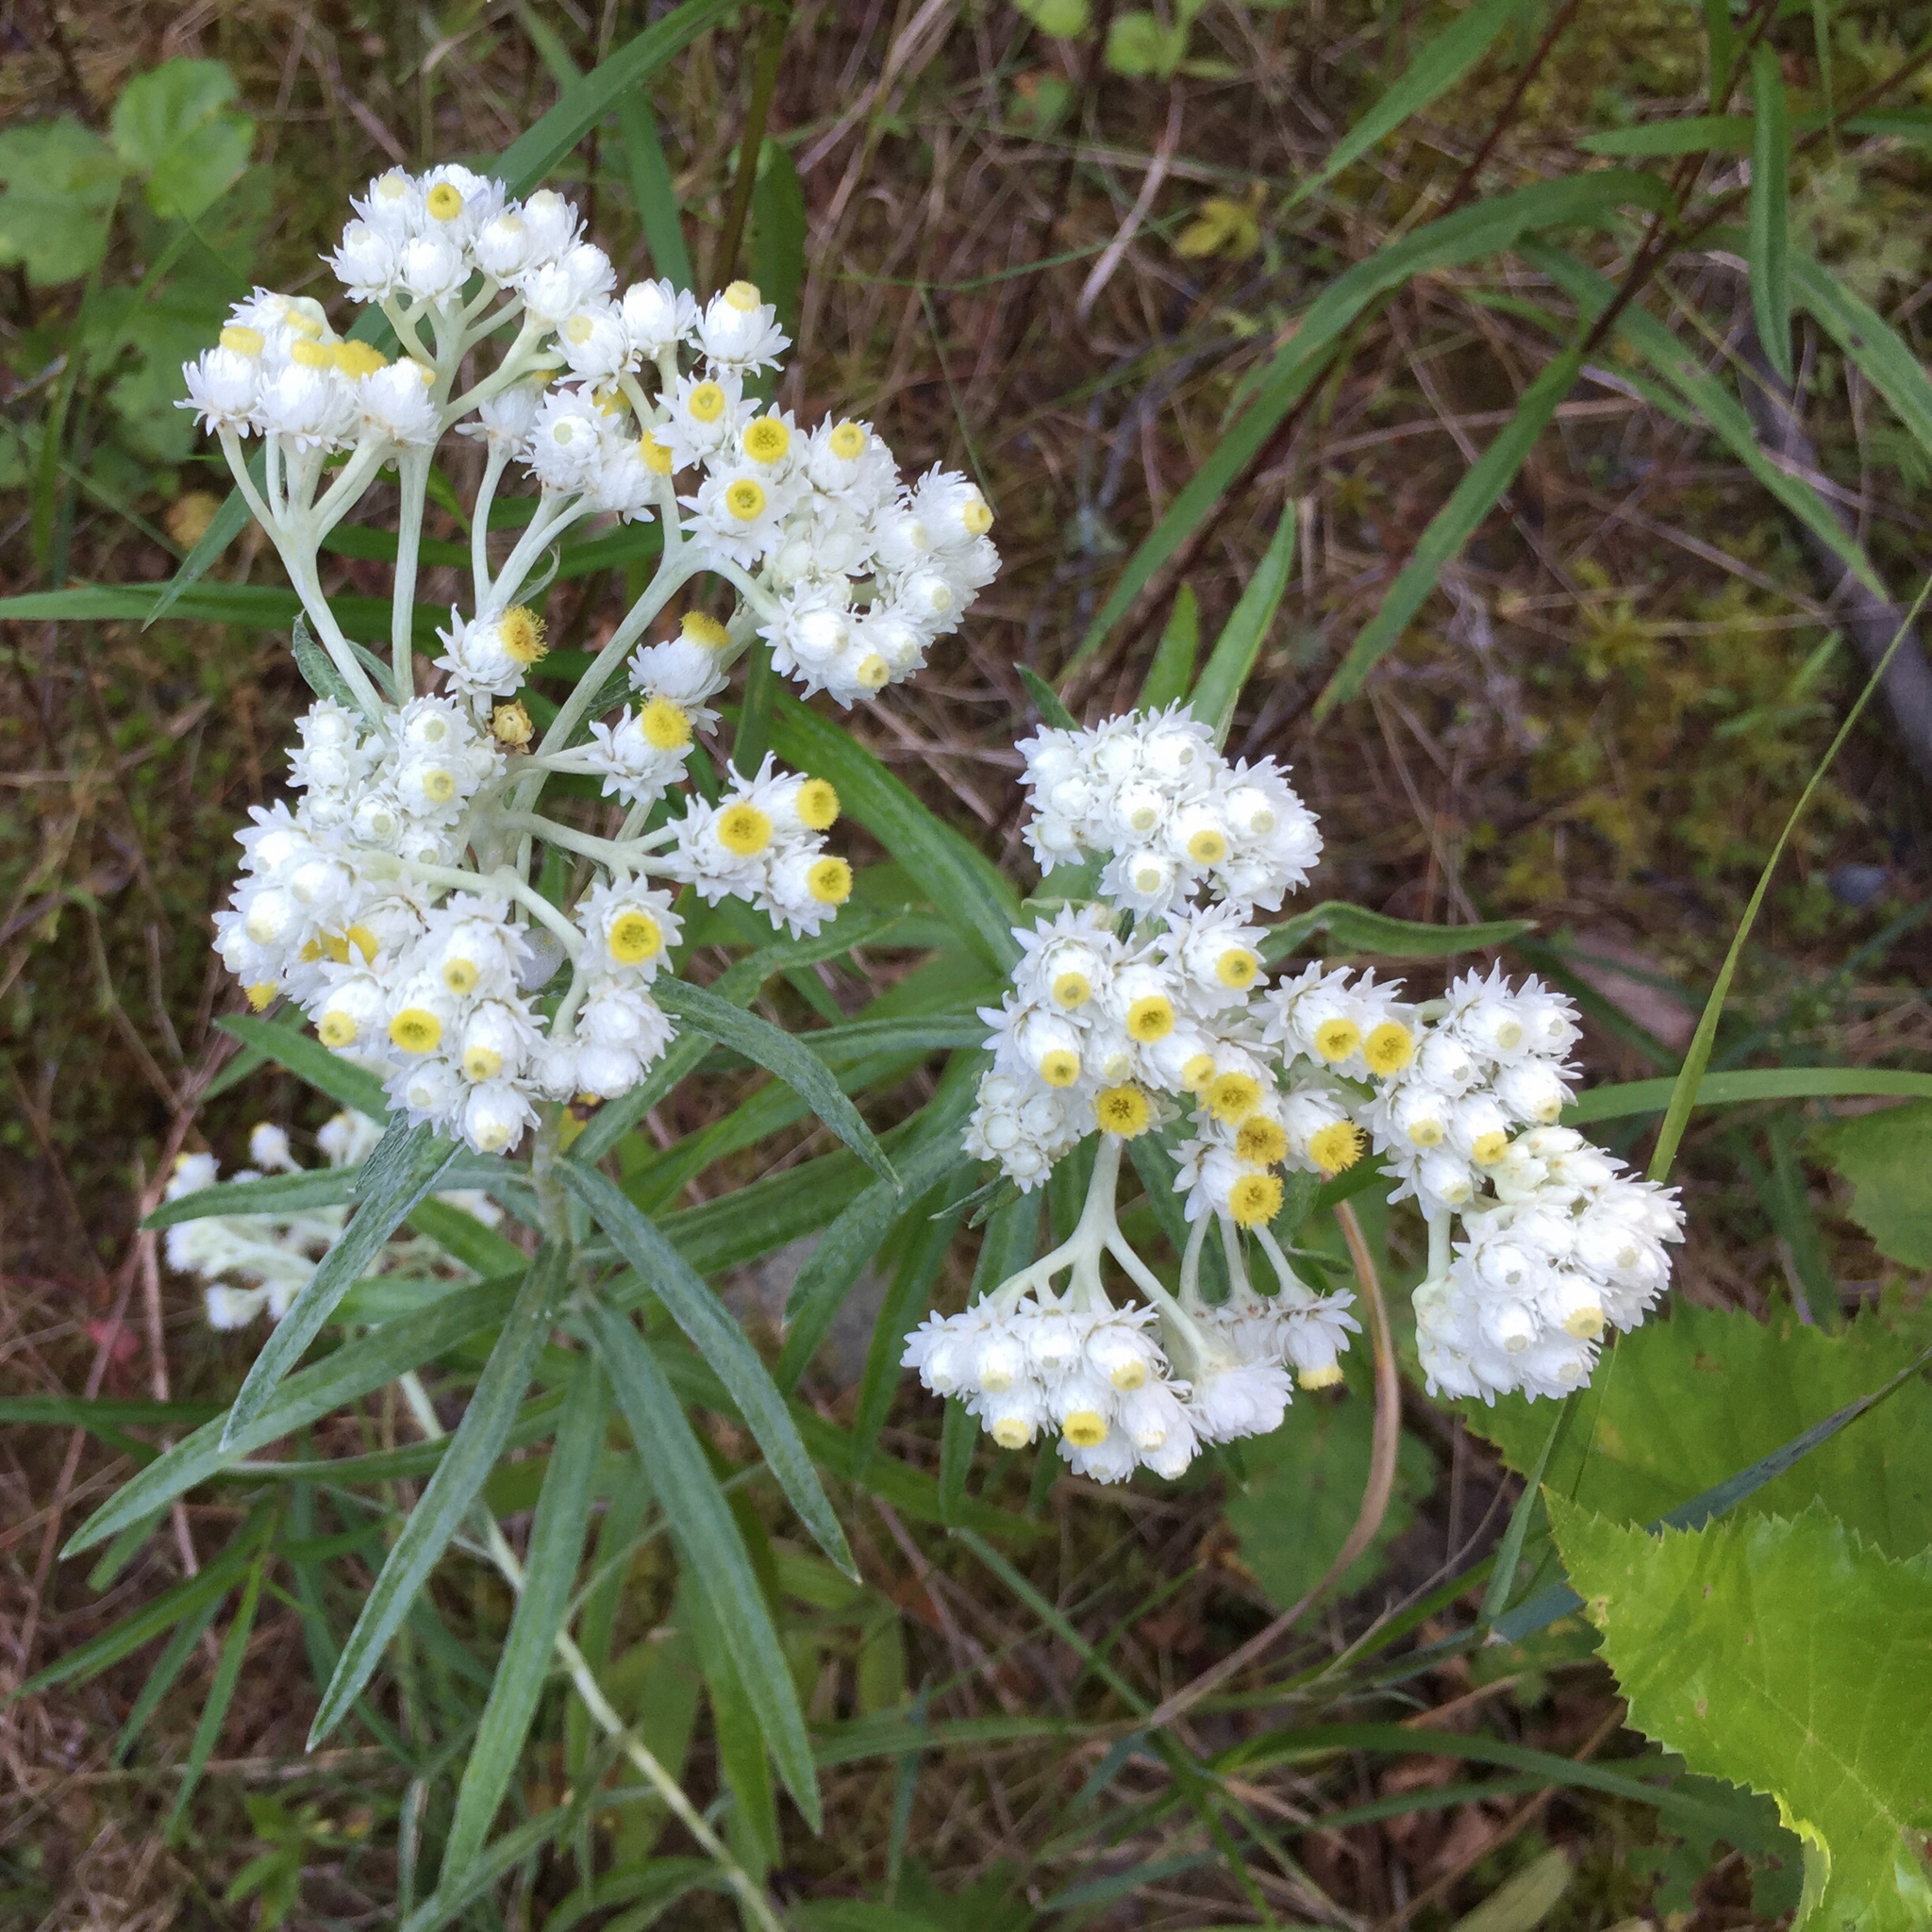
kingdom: Plantae
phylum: Tracheophyta
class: Magnoliopsida
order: Asterales
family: Asteraceae
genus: Anaphalis
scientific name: Anaphalis margaritacea
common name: Pearly everlasting
